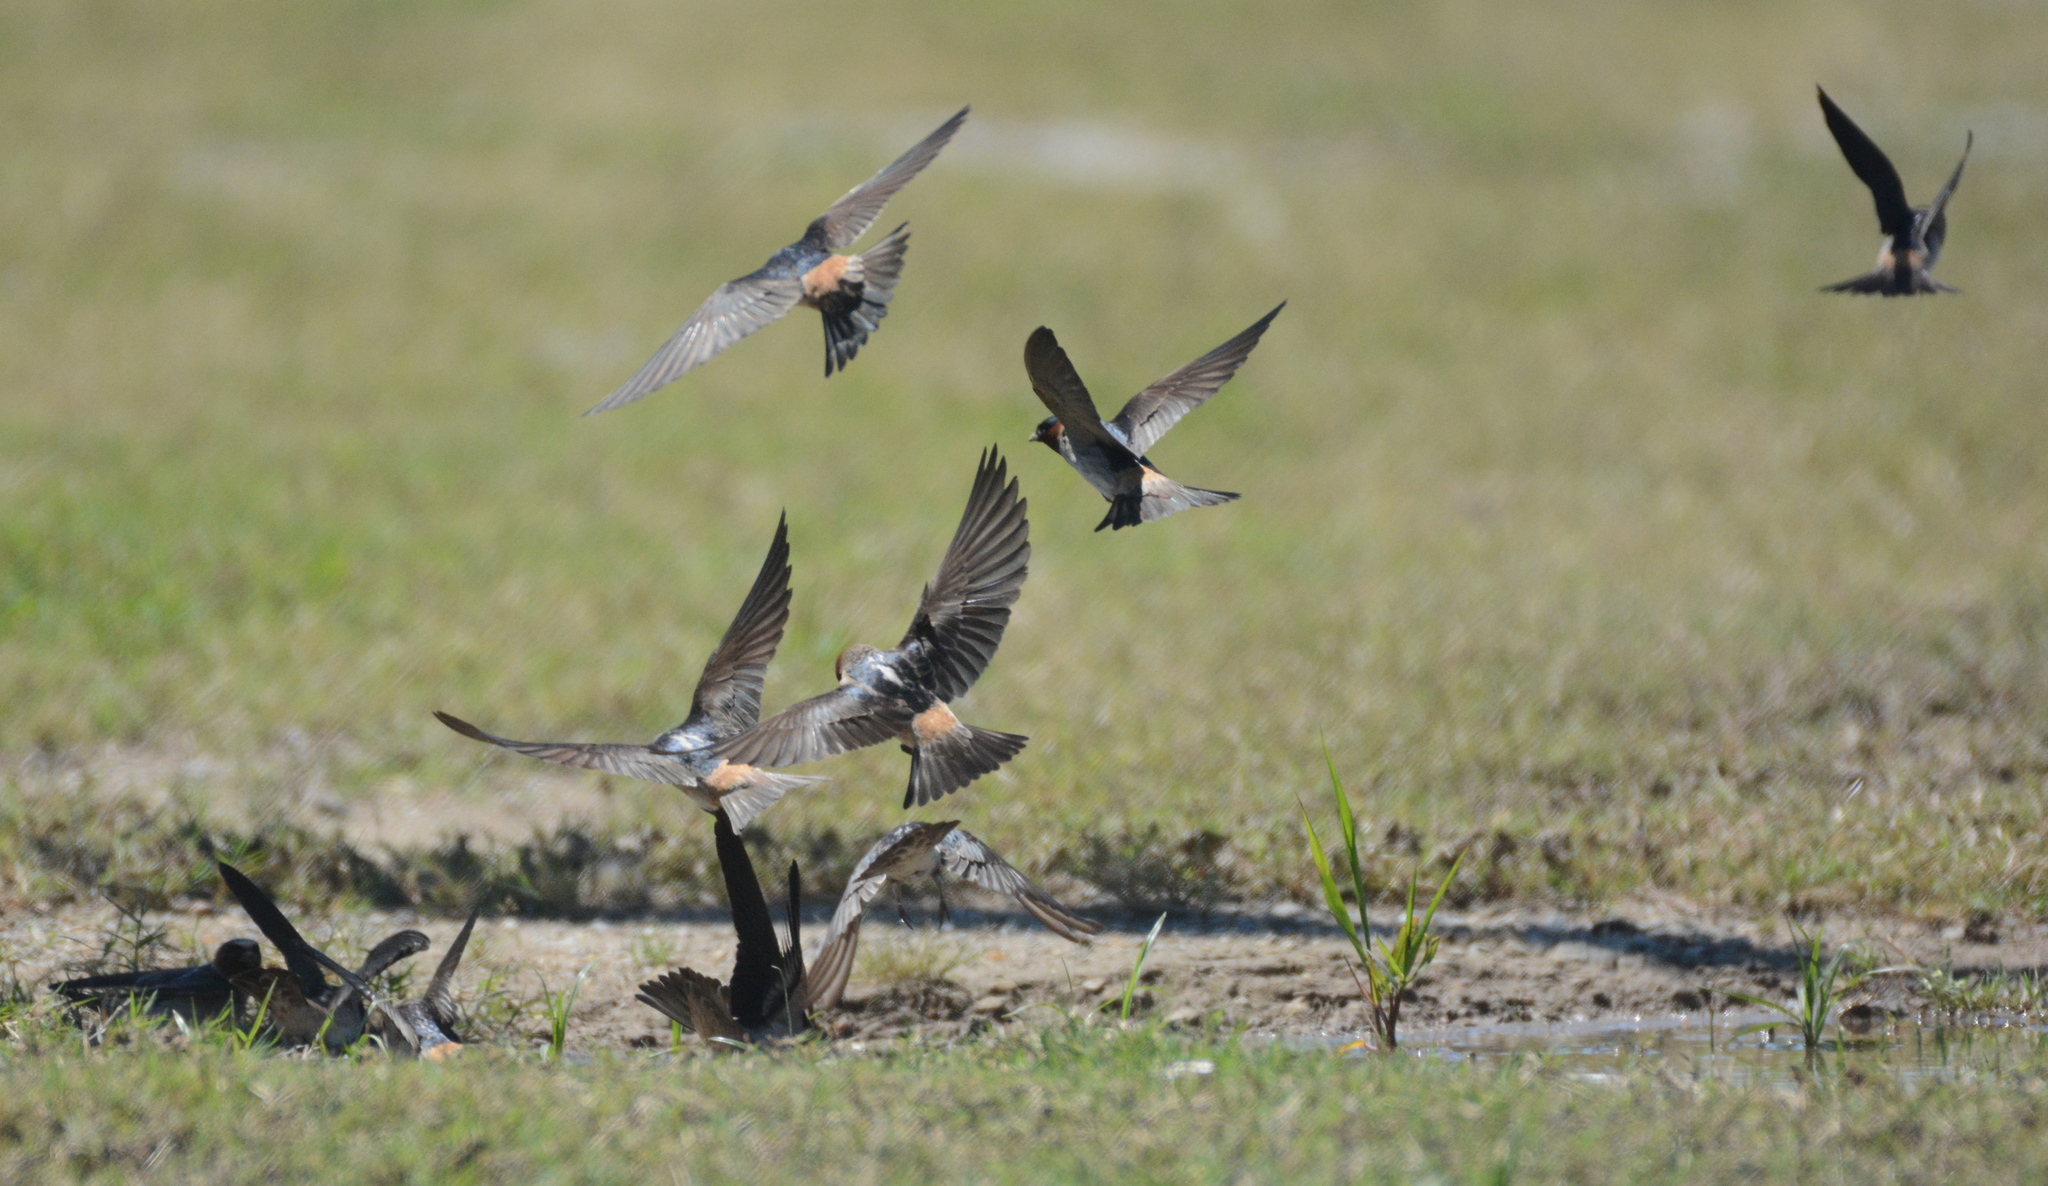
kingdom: Animalia
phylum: Chordata
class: Aves
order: Passeriformes
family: Hirundinidae
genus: Petrochelidon
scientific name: Petrochelidon pyrrhonota
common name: American cliff swallow
